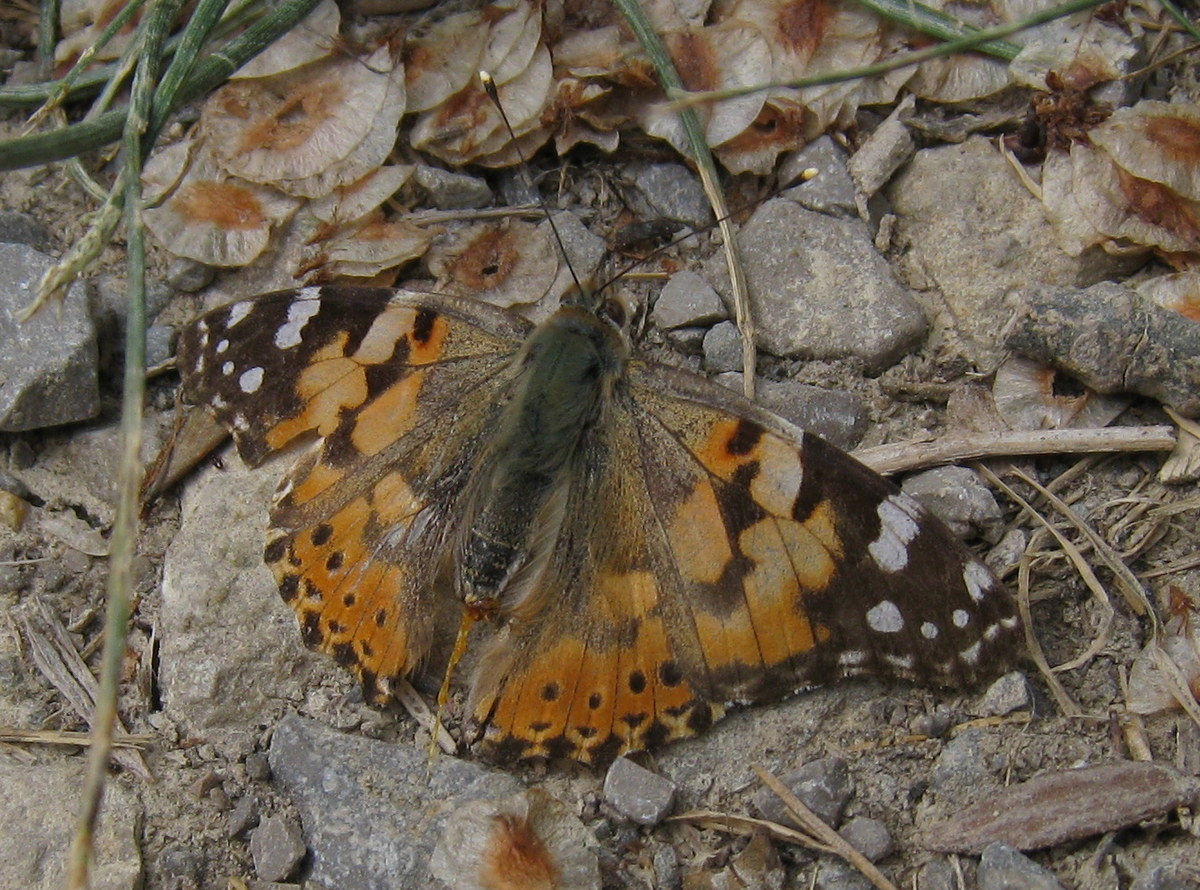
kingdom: Animalia
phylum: Arthropoda
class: Insecta
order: Lepidoptera
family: Nymphalidae
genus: Vanessa
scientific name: Vanessa cardui
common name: Painted lady
